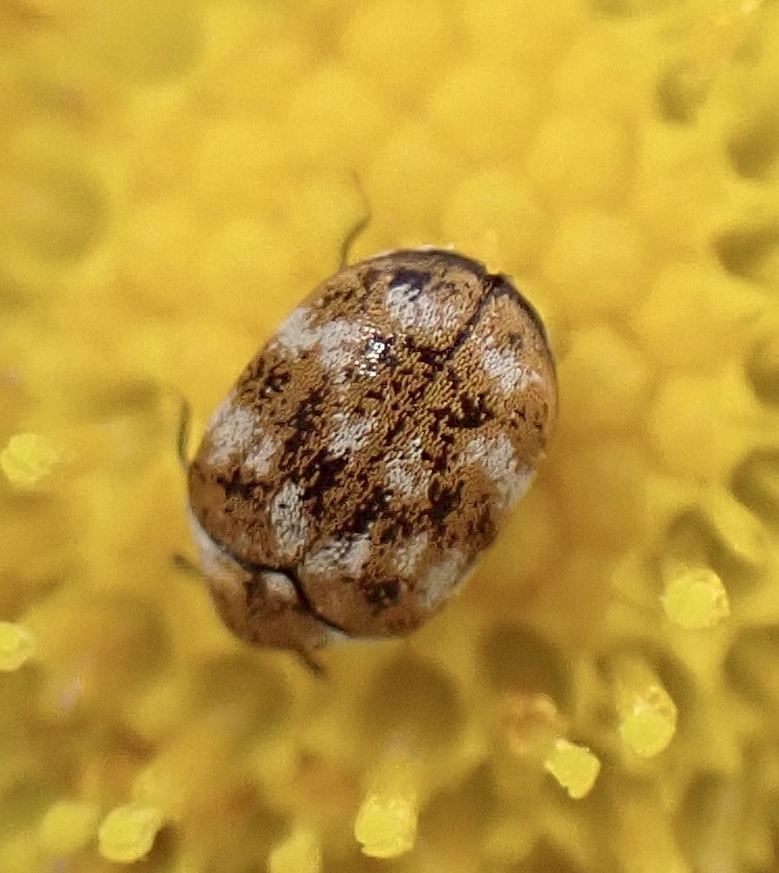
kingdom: Animalia
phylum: Arthropoda
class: Insecta
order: Coleoptera
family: Dermestidae
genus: Anthrenus
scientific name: Anthrenus verbasci
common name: Varied carpet beetle
